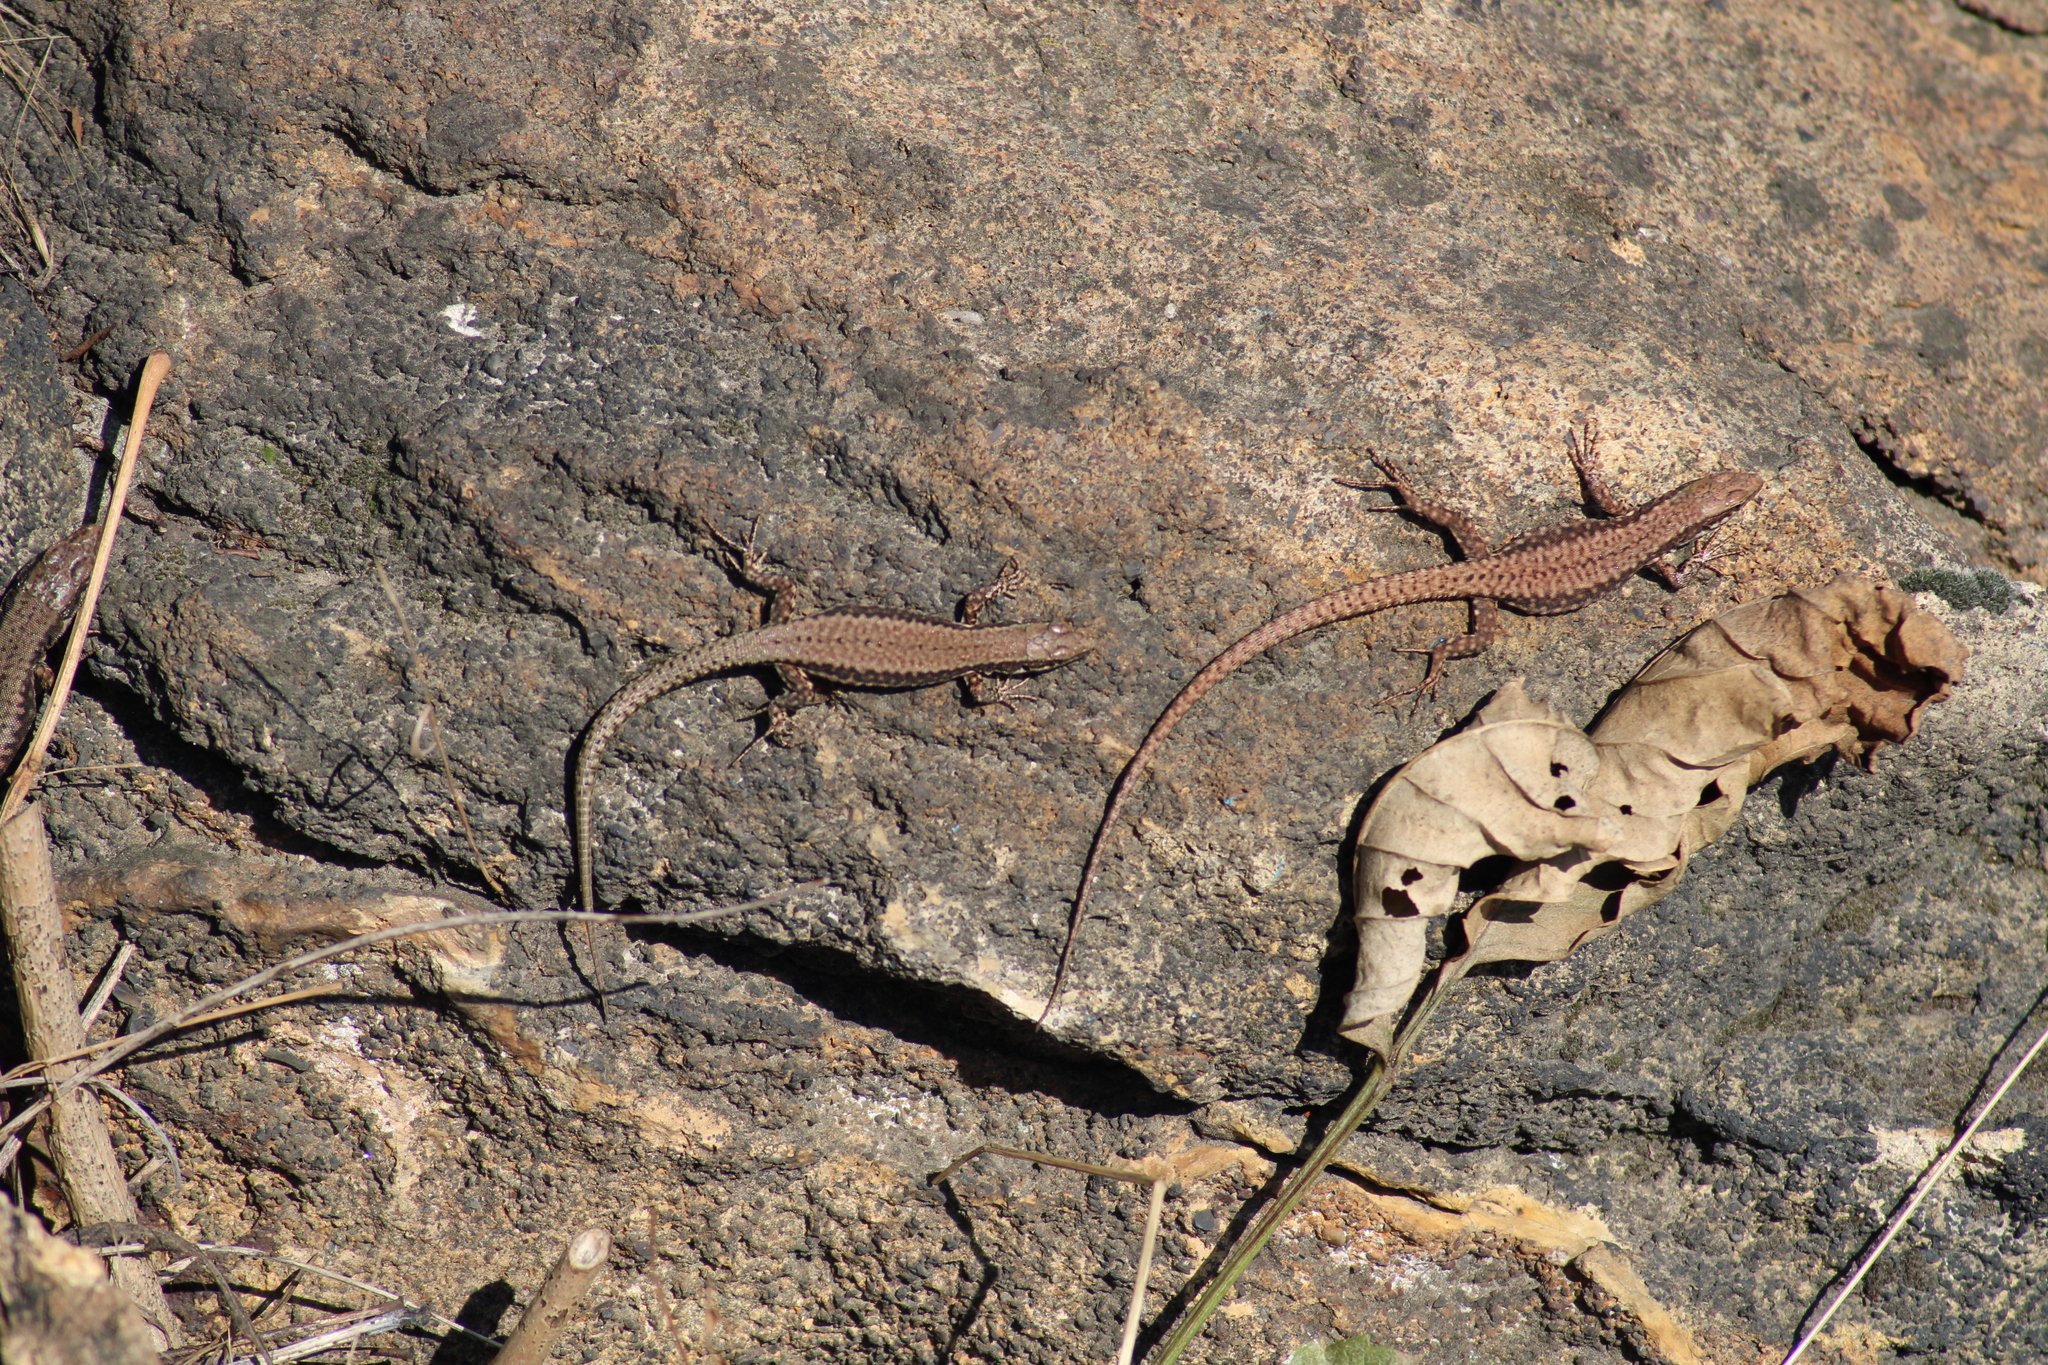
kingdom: Animalia
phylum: Chordata
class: Squamata
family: Lacertidae
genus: Podarcis
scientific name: Podarcis muralis
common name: Common wall lizard
